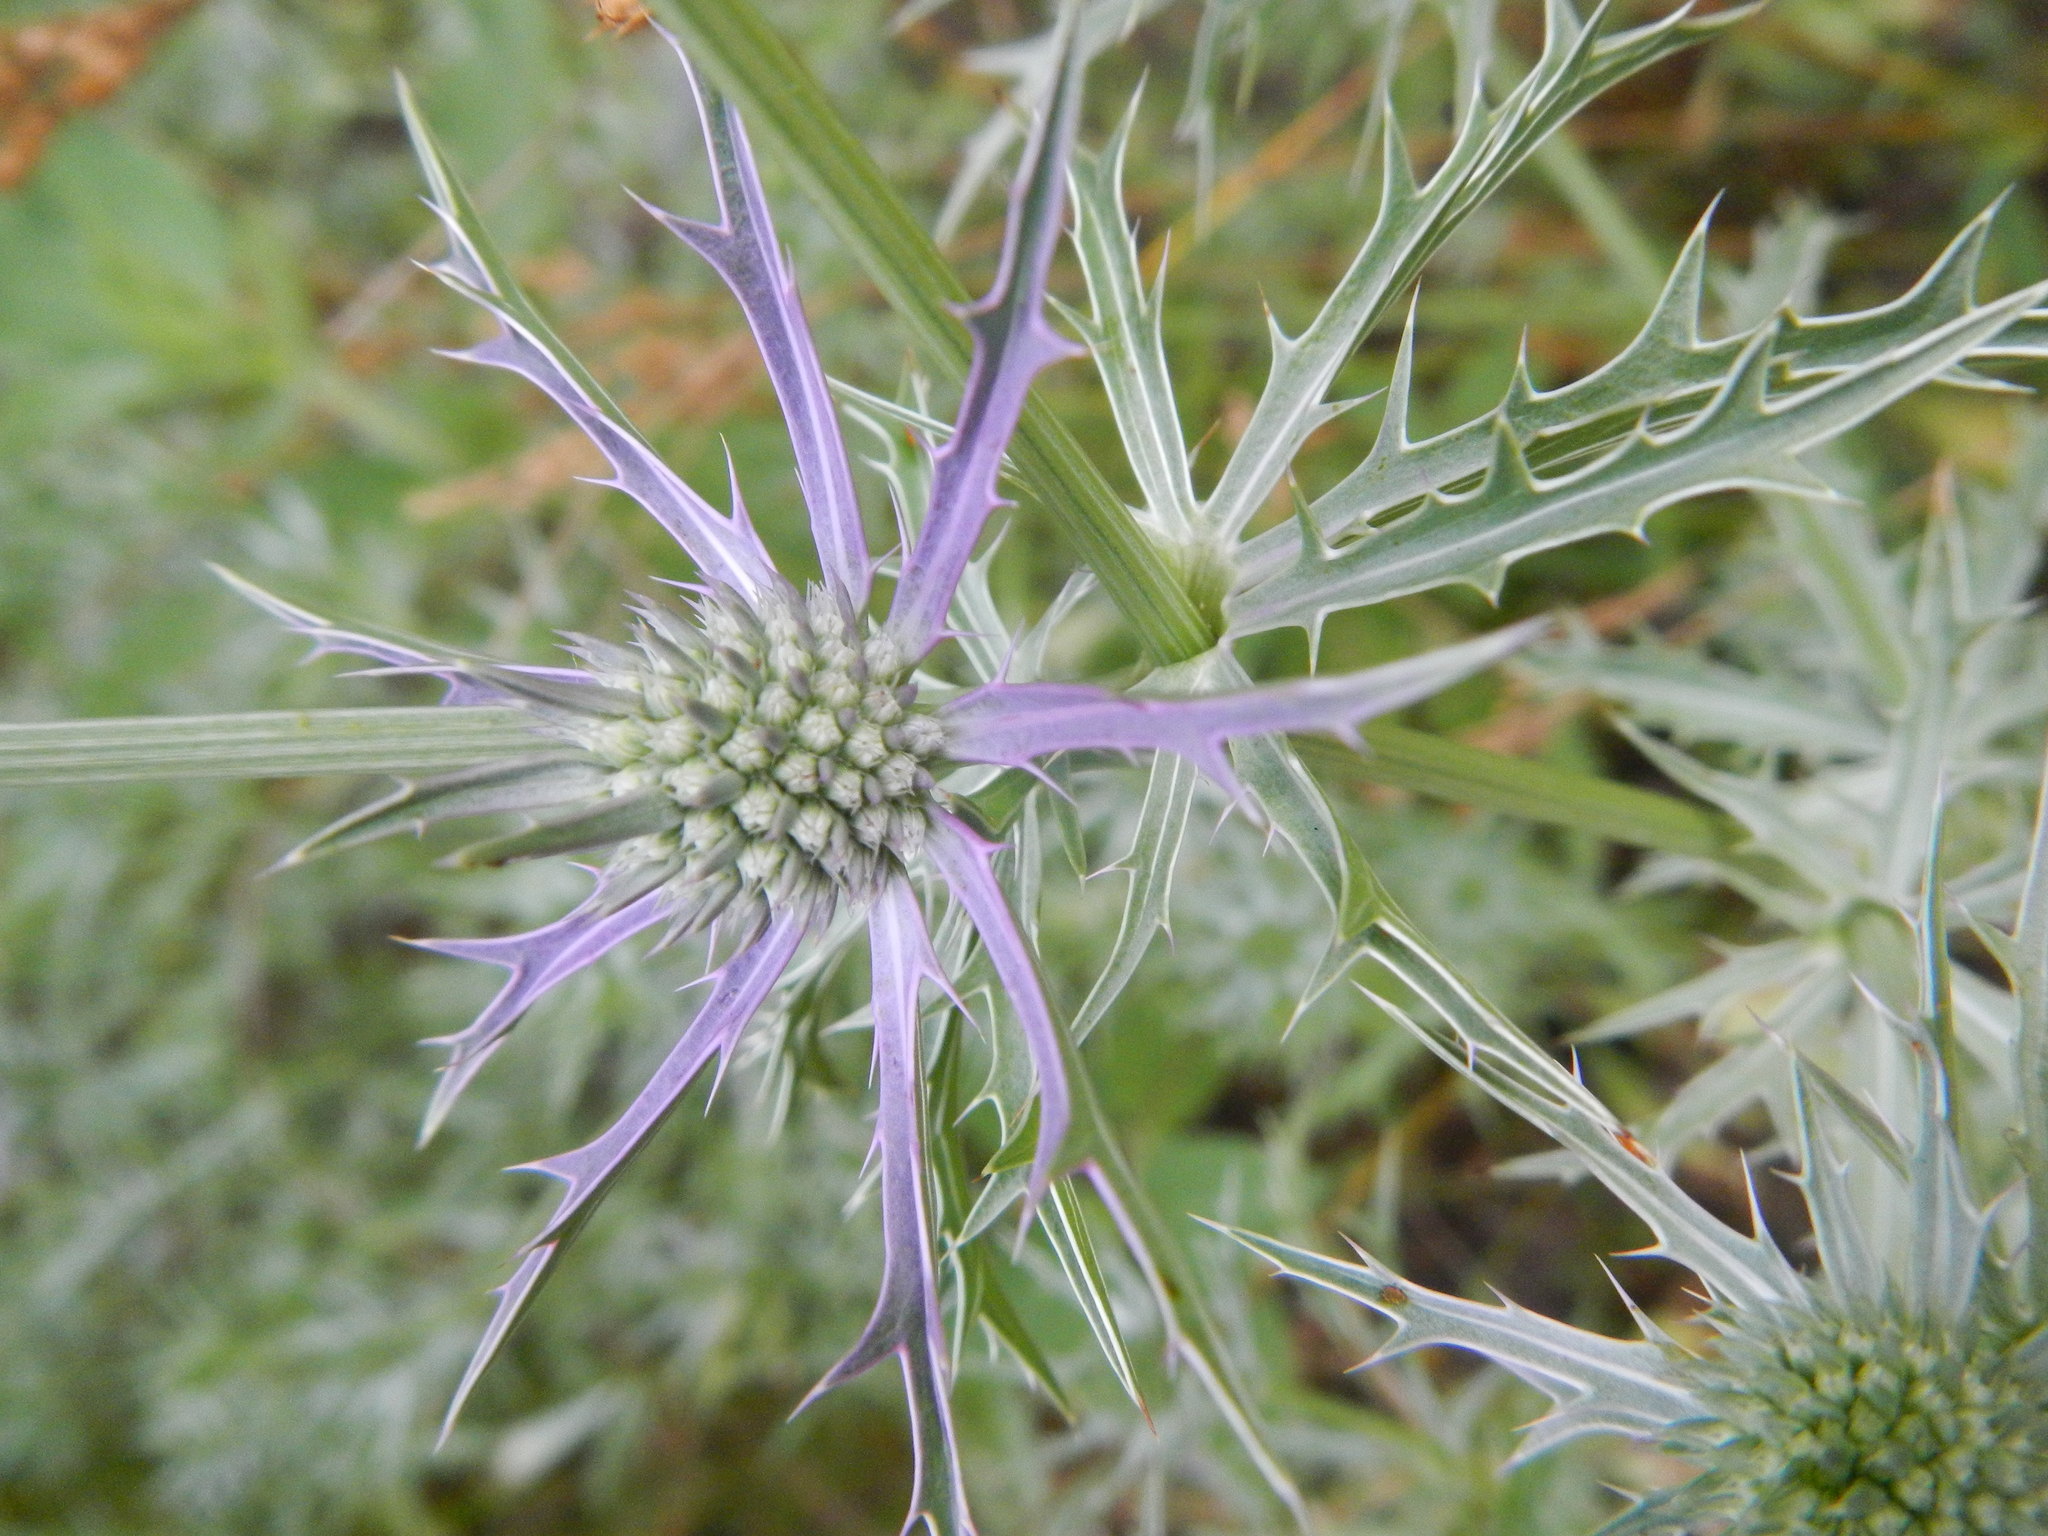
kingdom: Plantae
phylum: Tracheophyta
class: Magnoliopsida
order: Apiales
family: Apiaceae
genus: Eryngium
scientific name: Eryngium hookeri
